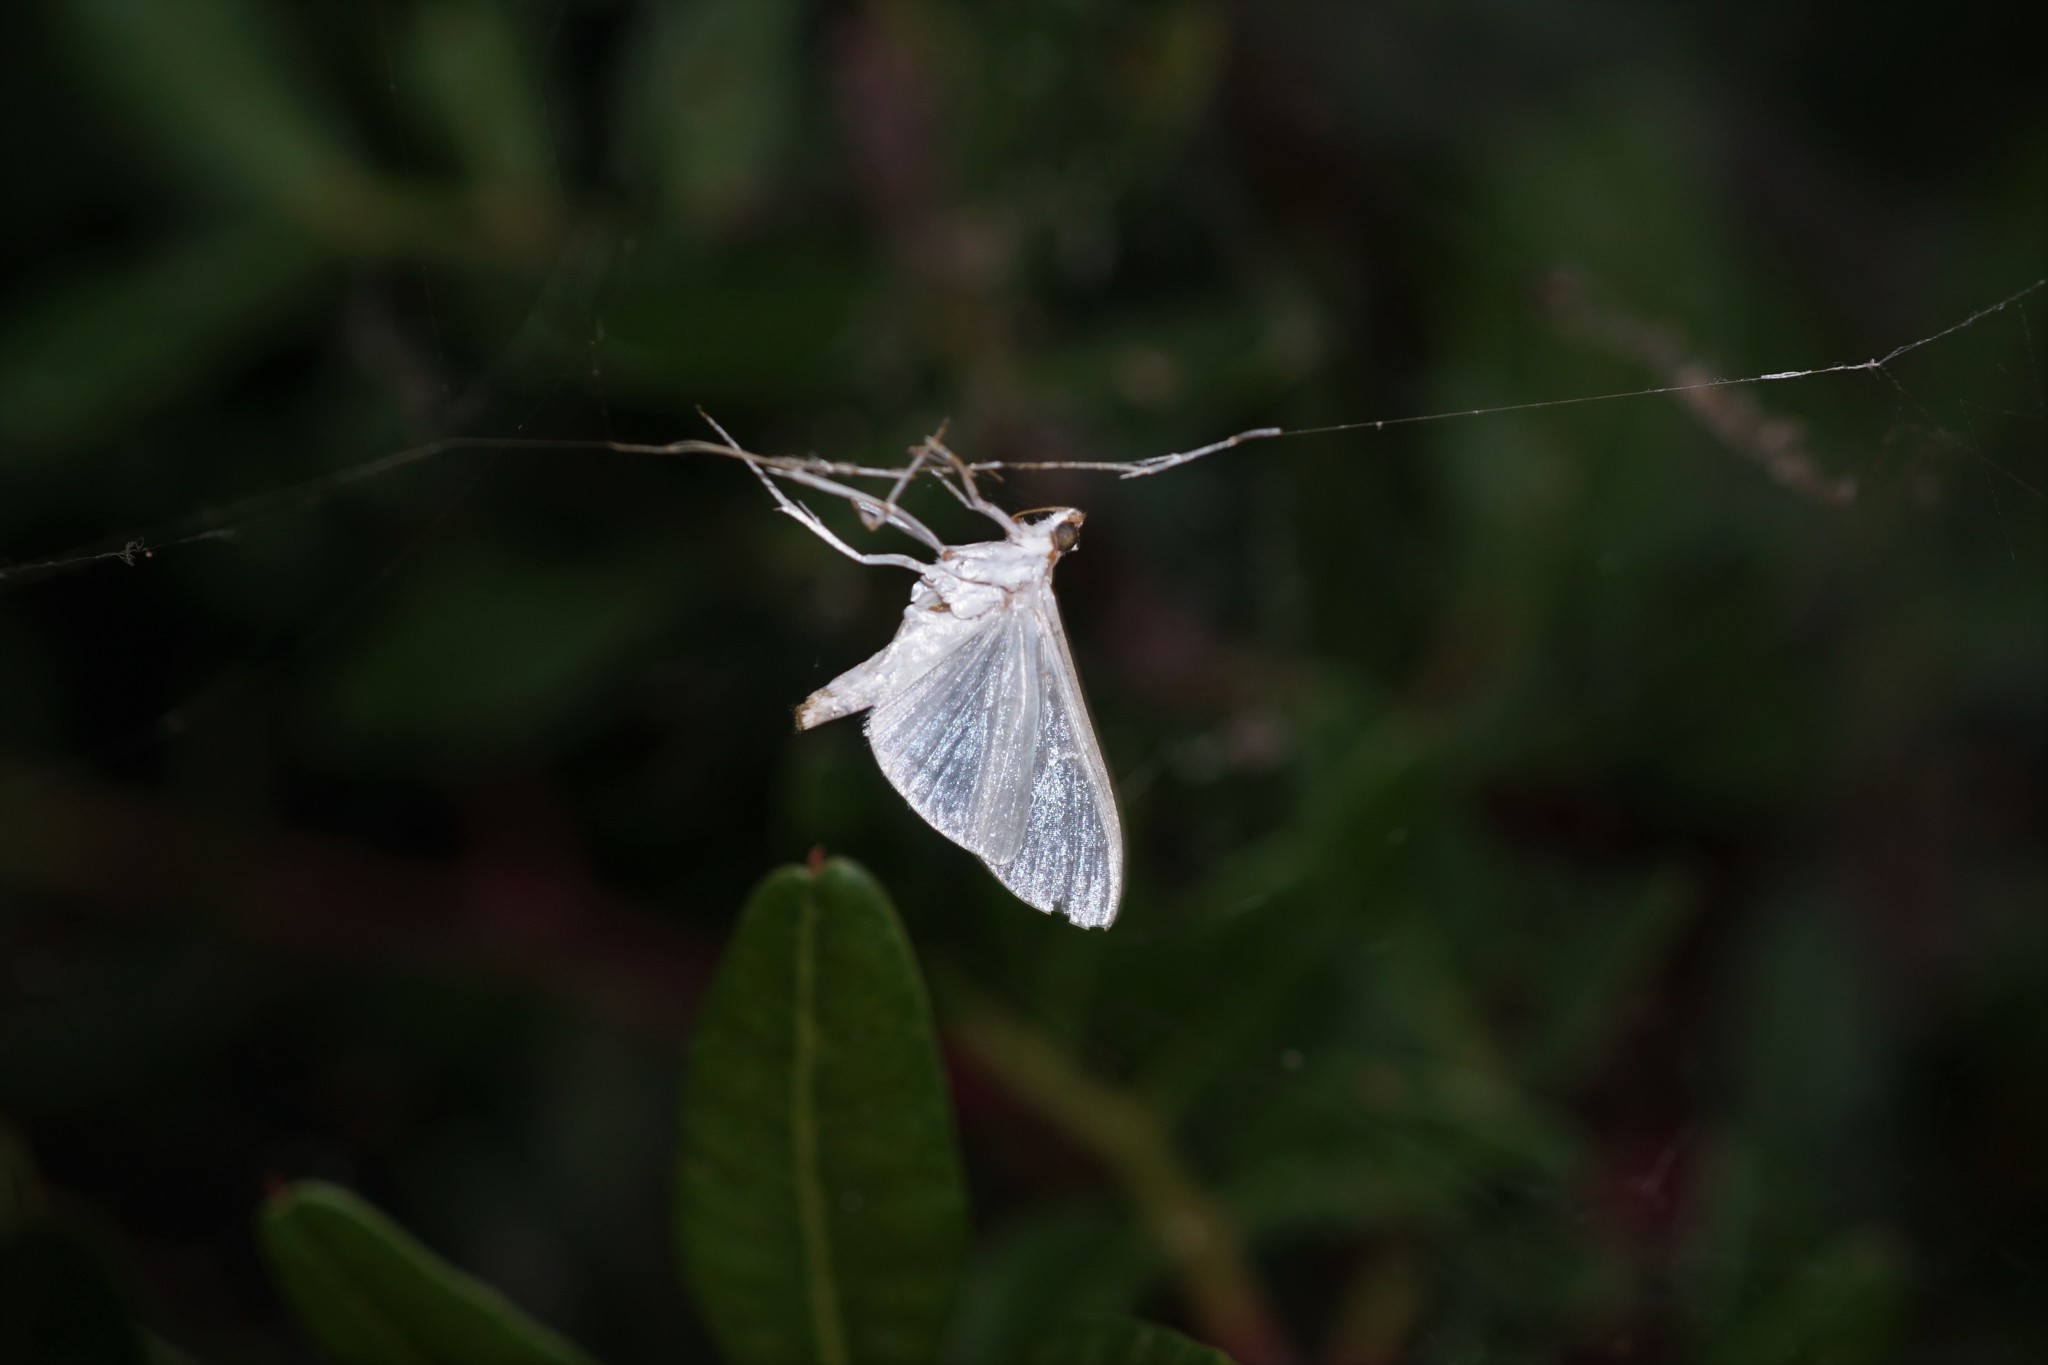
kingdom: Animalia
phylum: Arthropoda
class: Insecta
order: Lepidoptera
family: Crambidae
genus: Palpita
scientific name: Palpita vitrealis
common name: Olive-tree pearl
